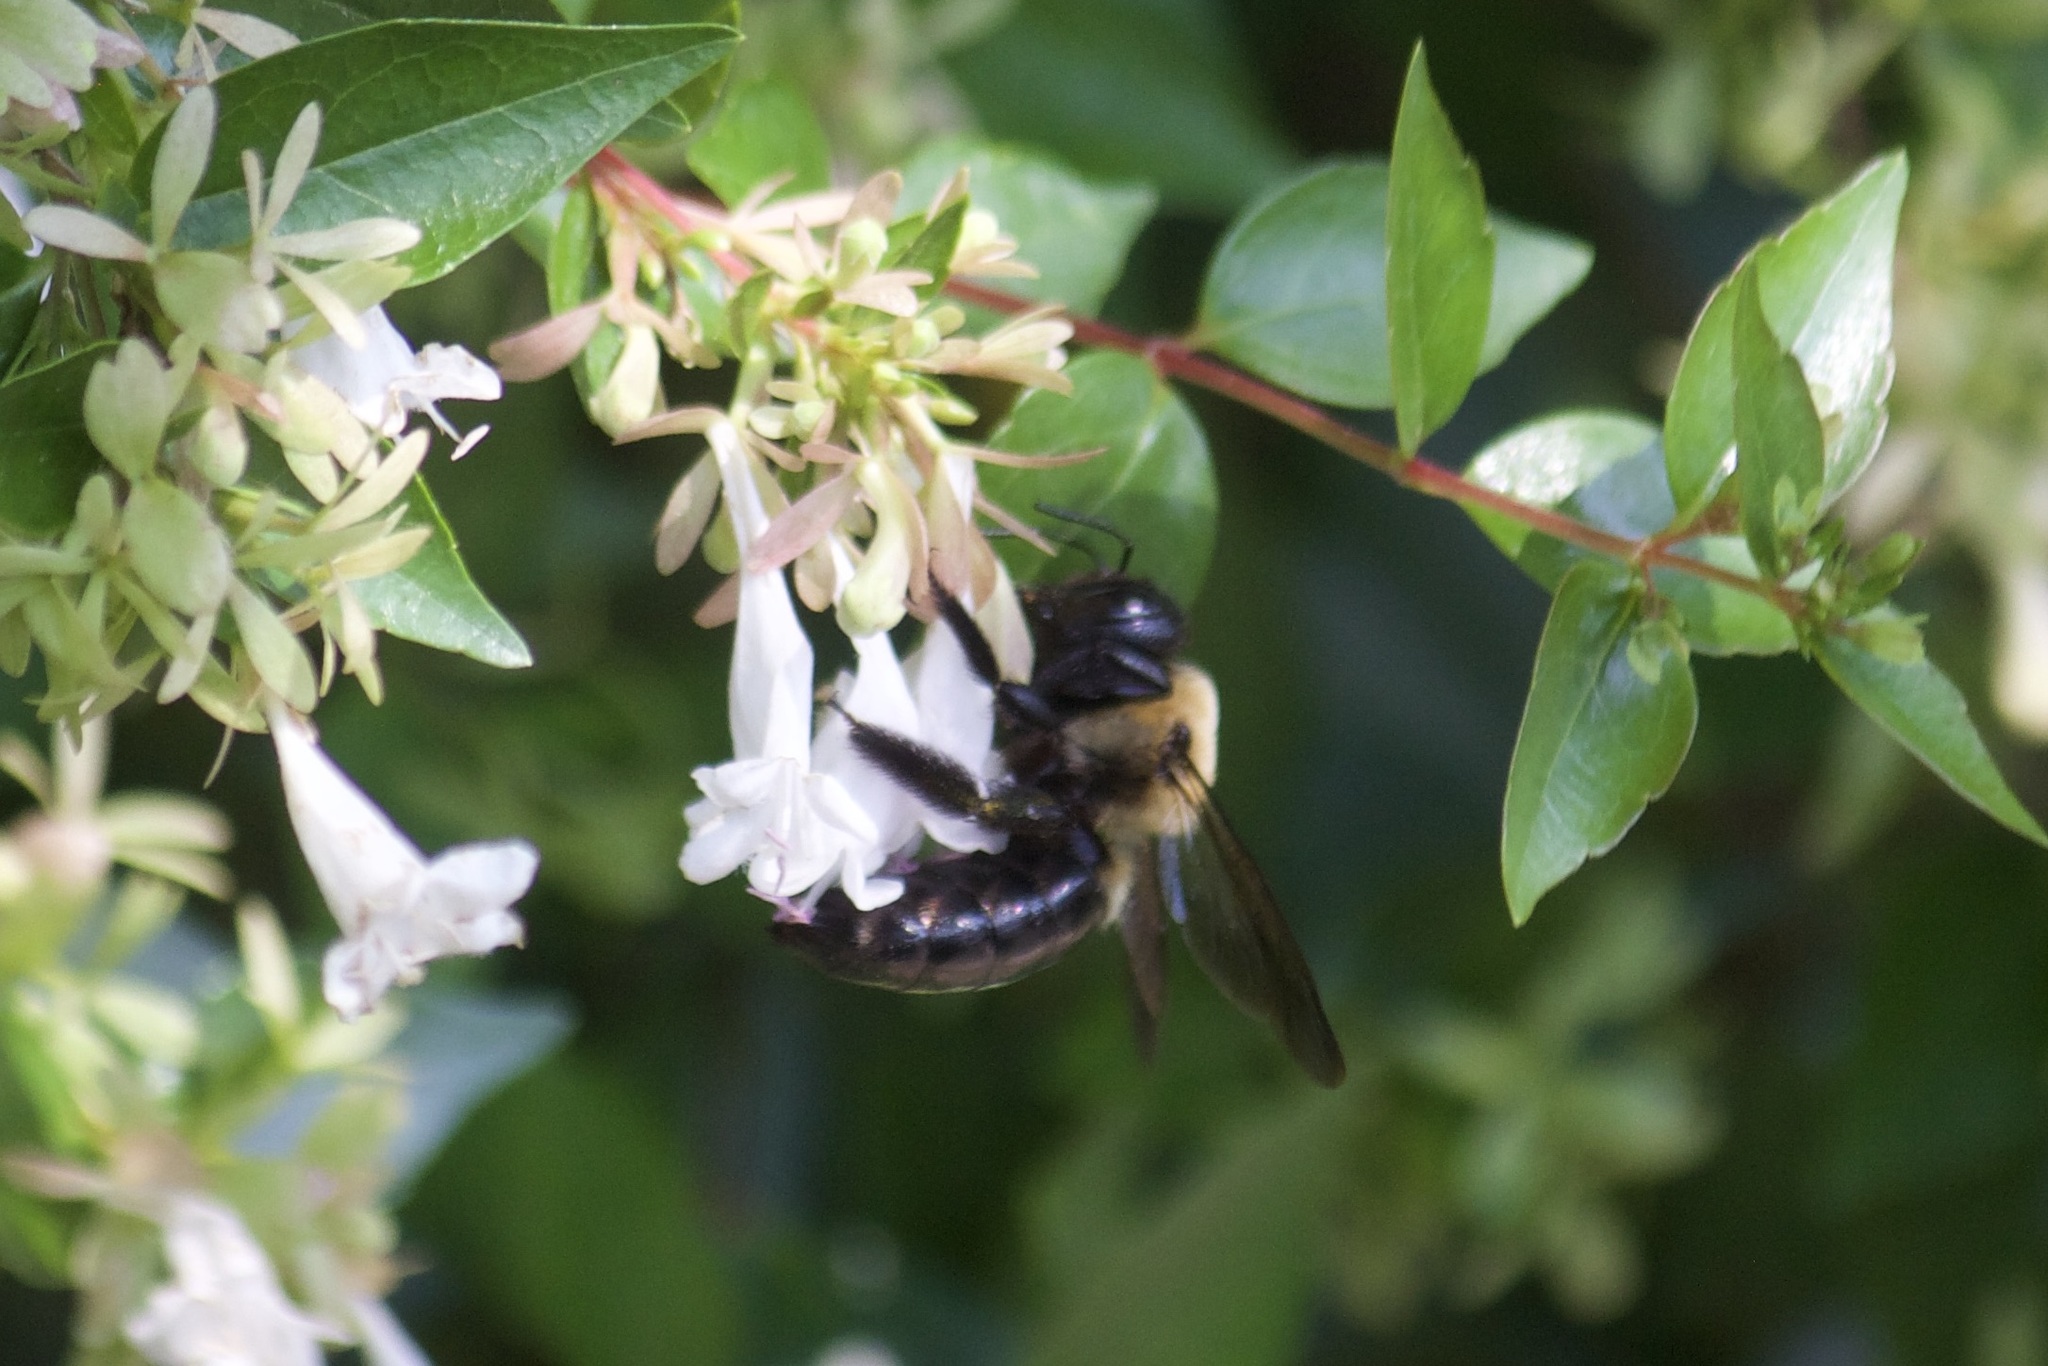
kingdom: Animalia
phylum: Arthropoda
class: Insecta
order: Hymenoptera
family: Apidae
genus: Xylocopa
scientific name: Xylocopa virginica
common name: Carpenter bee
